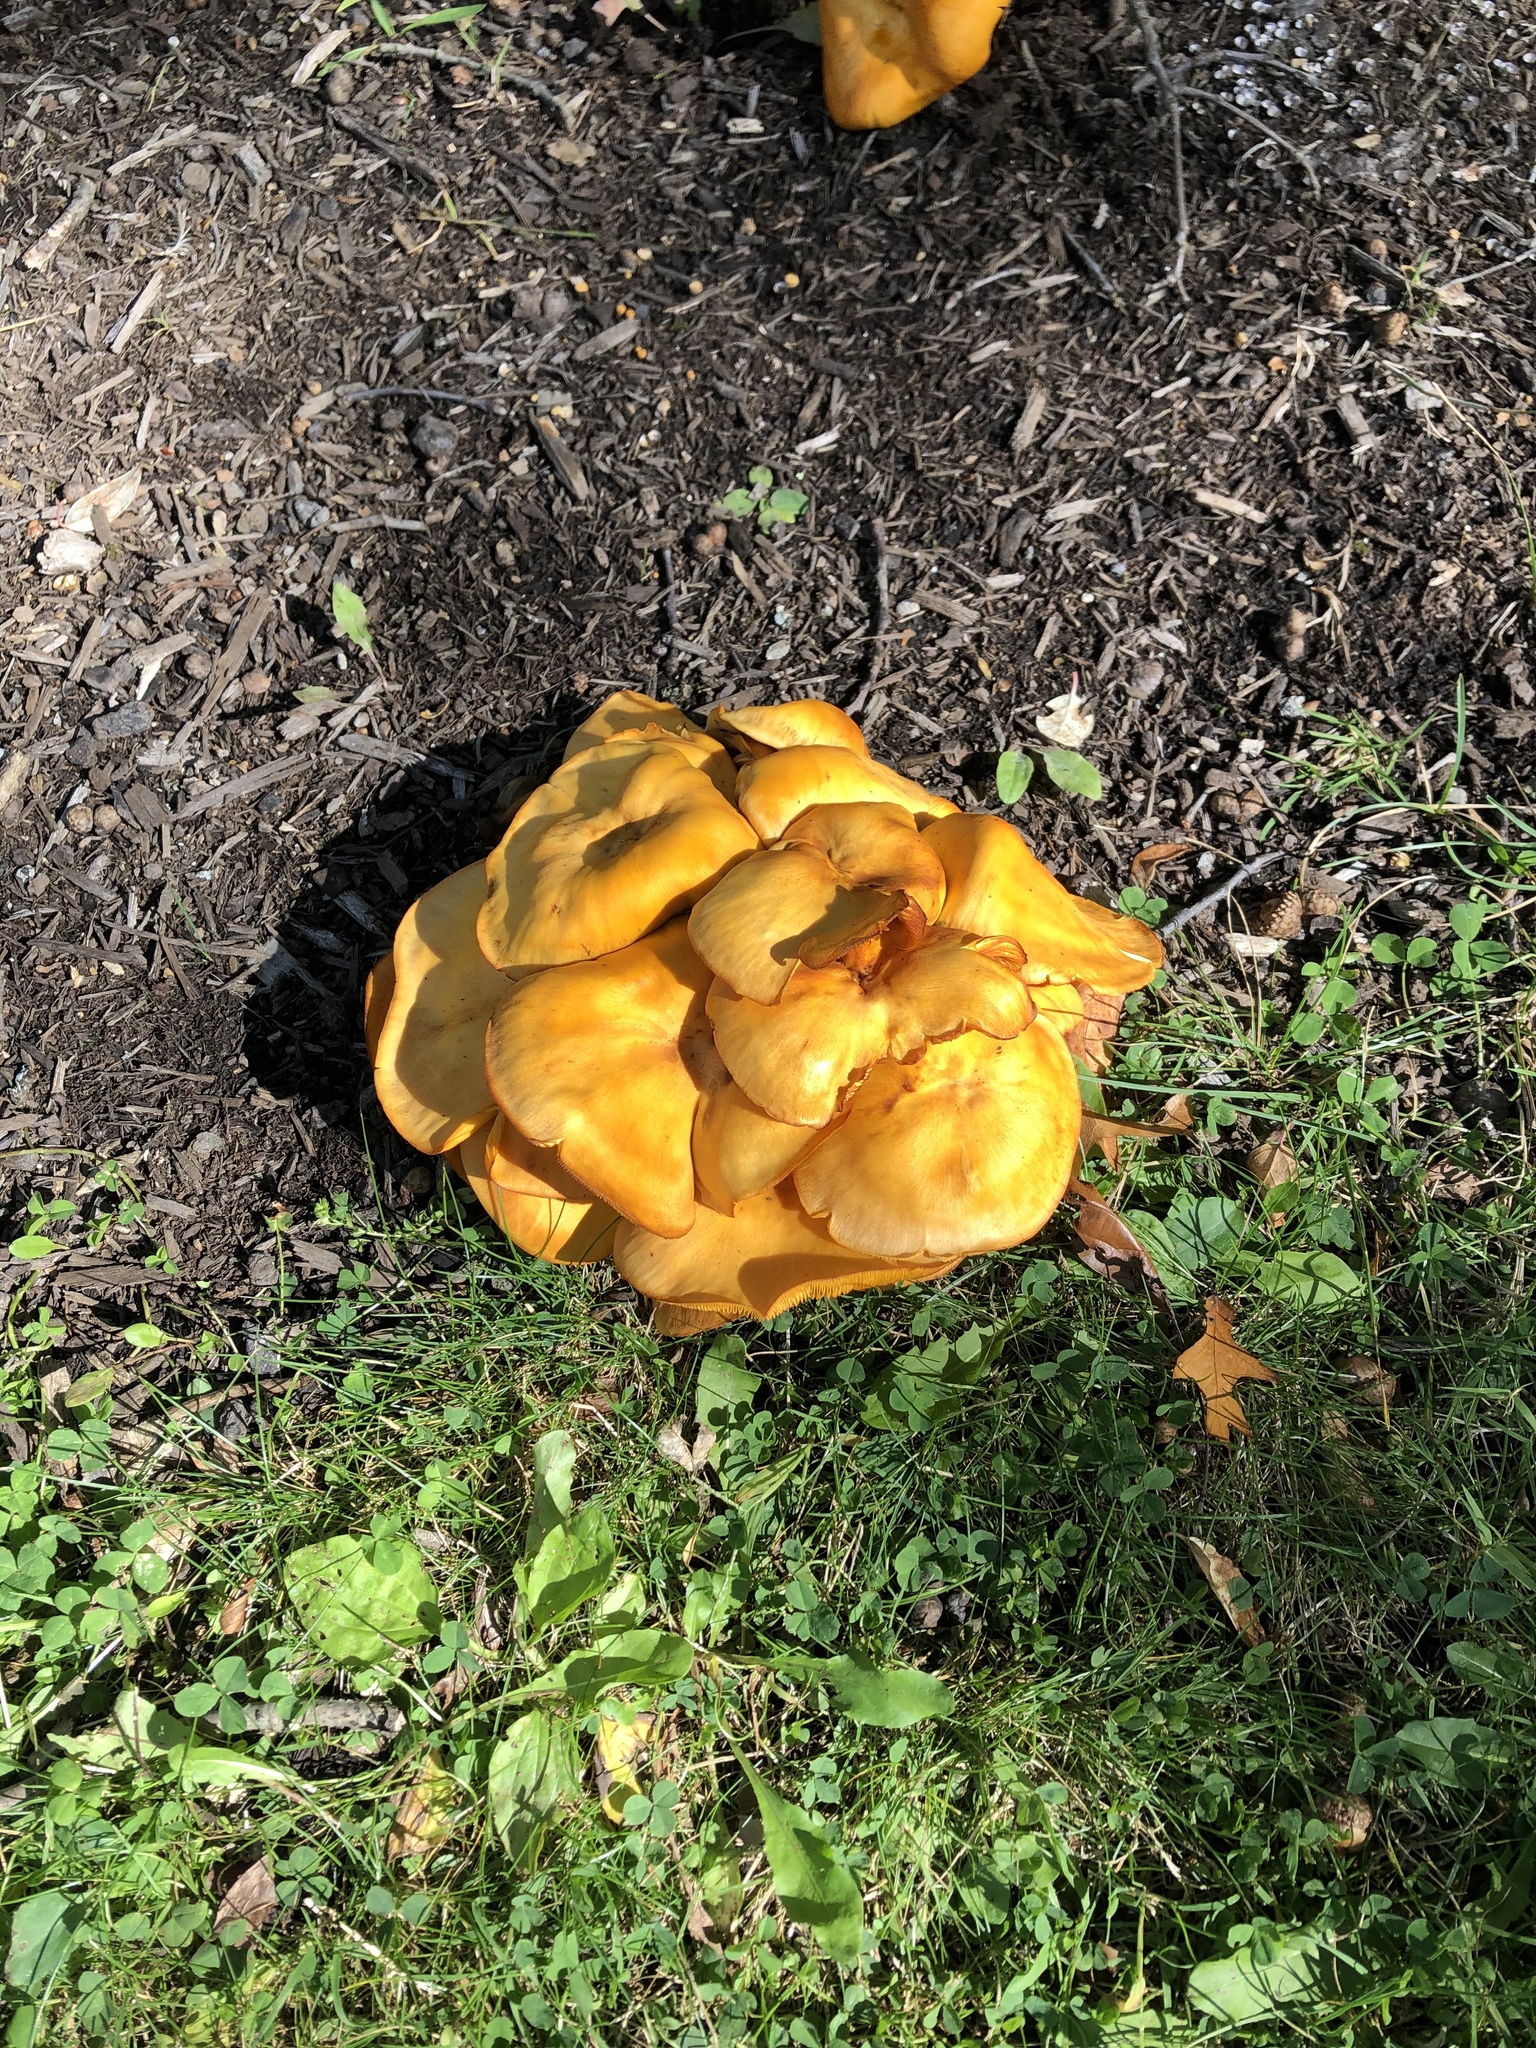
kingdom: Fungi
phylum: Basidiomycota
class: Agaricomycetes
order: Agaricales
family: Omphalotaceae
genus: Omphalotus
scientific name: Omphalotus illudens
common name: Jack o lantern
